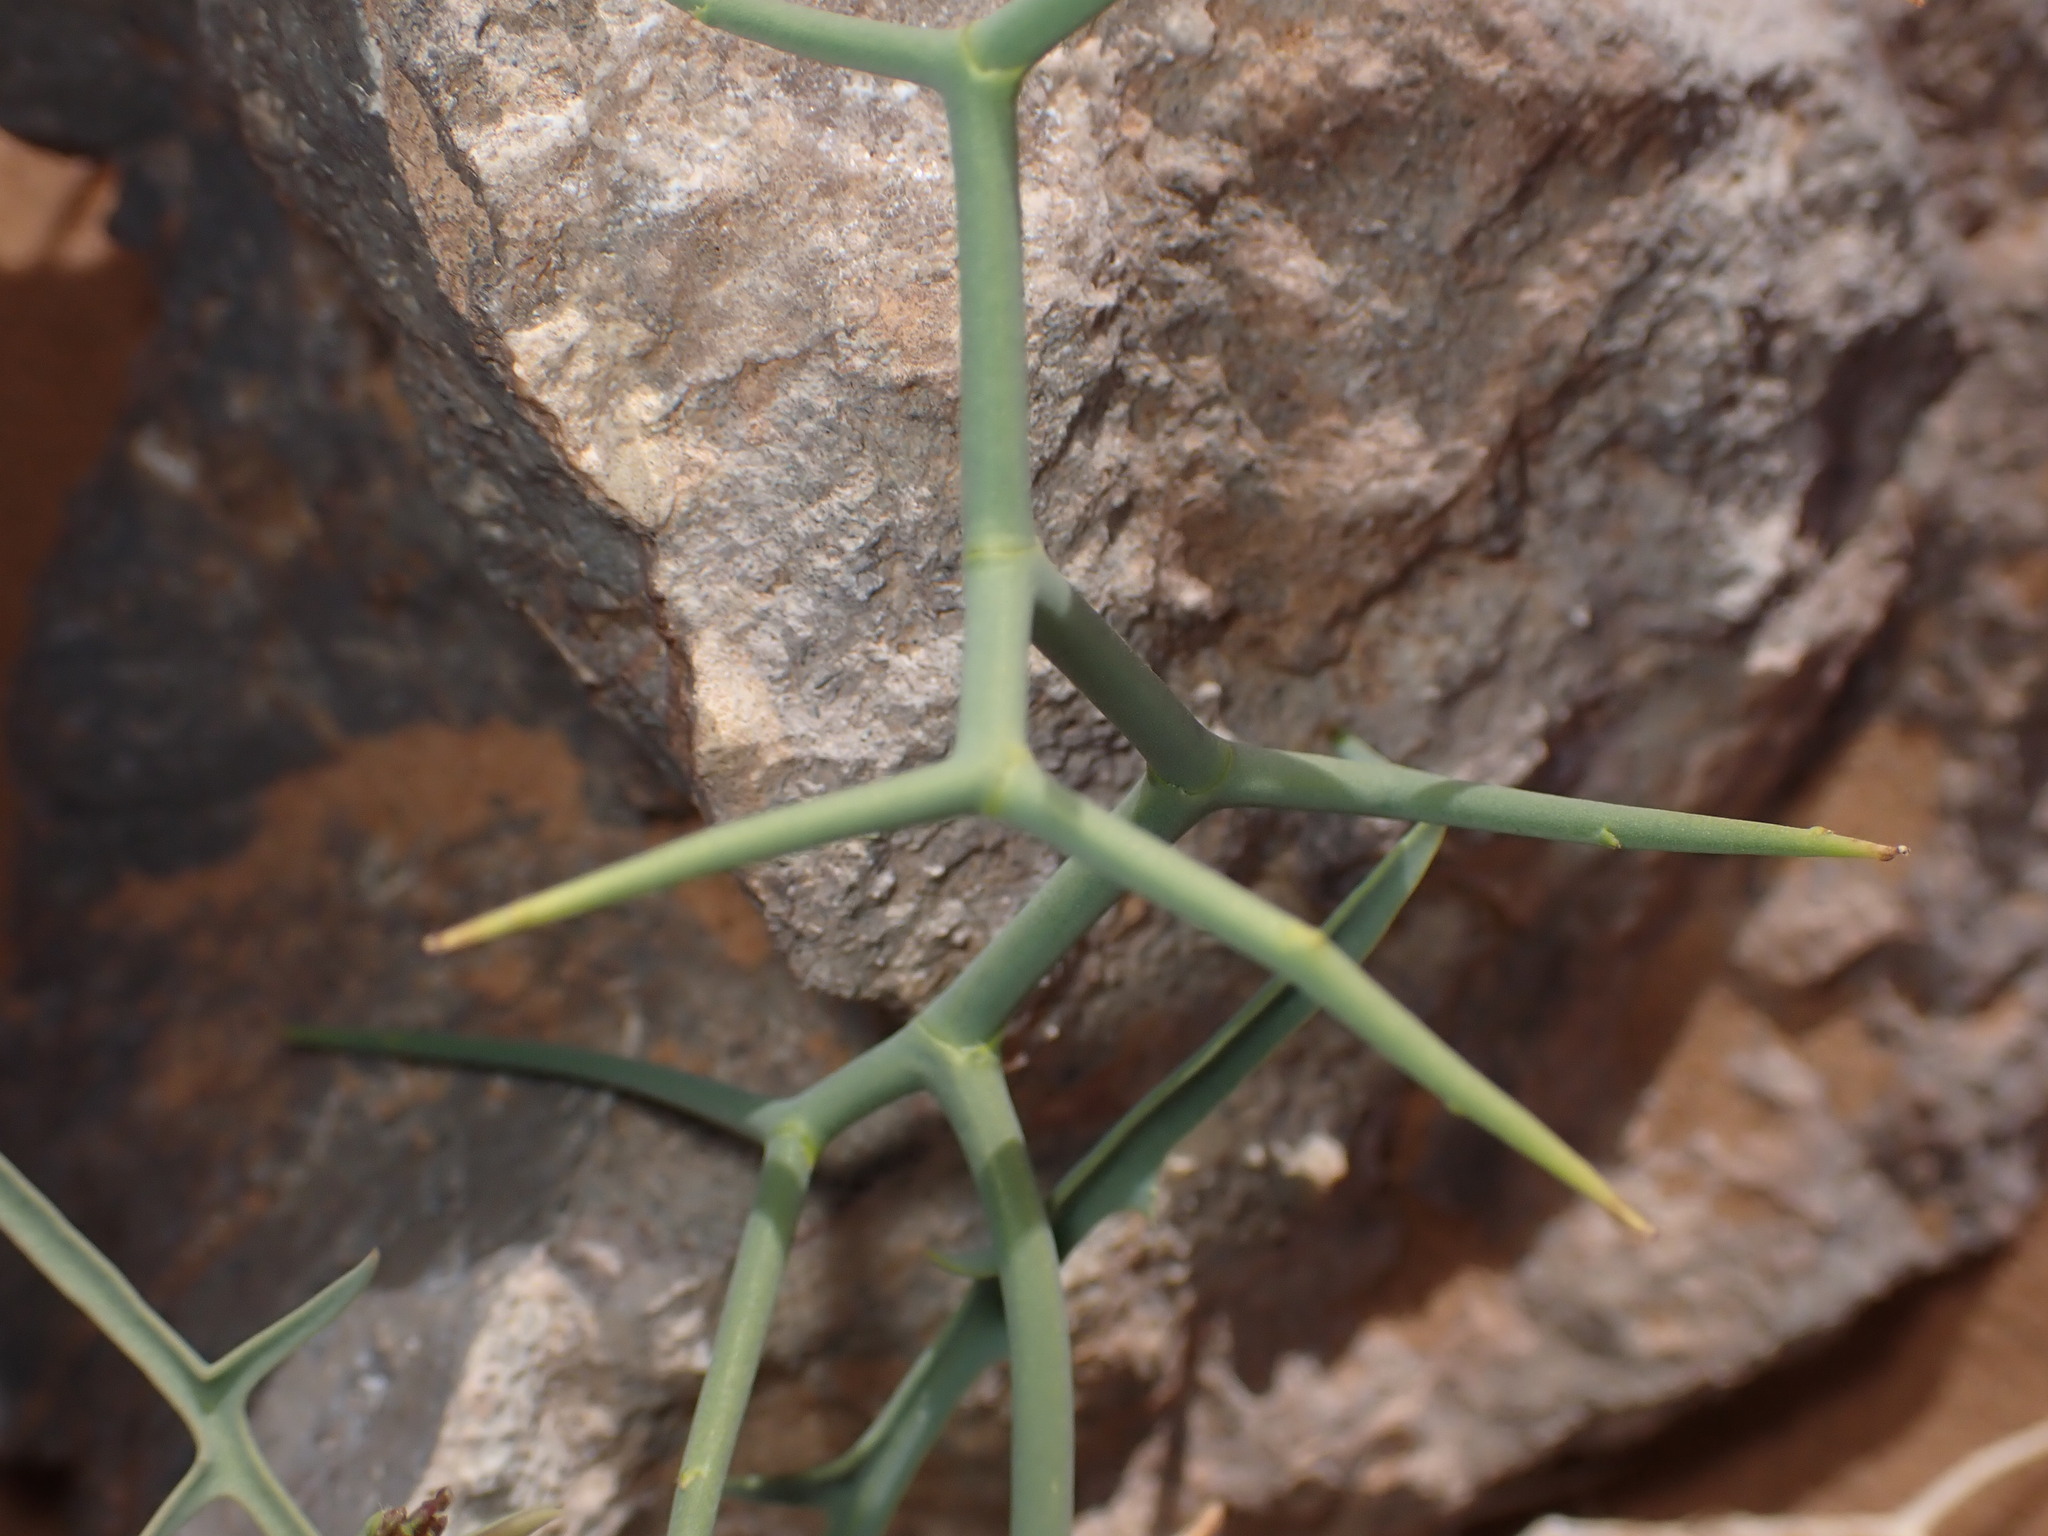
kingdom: Plantae
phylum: Tracheophyta
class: Magnoliopsida
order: Brassicales
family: Brassicaceae
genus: Zilla
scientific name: Zilla spinosa
